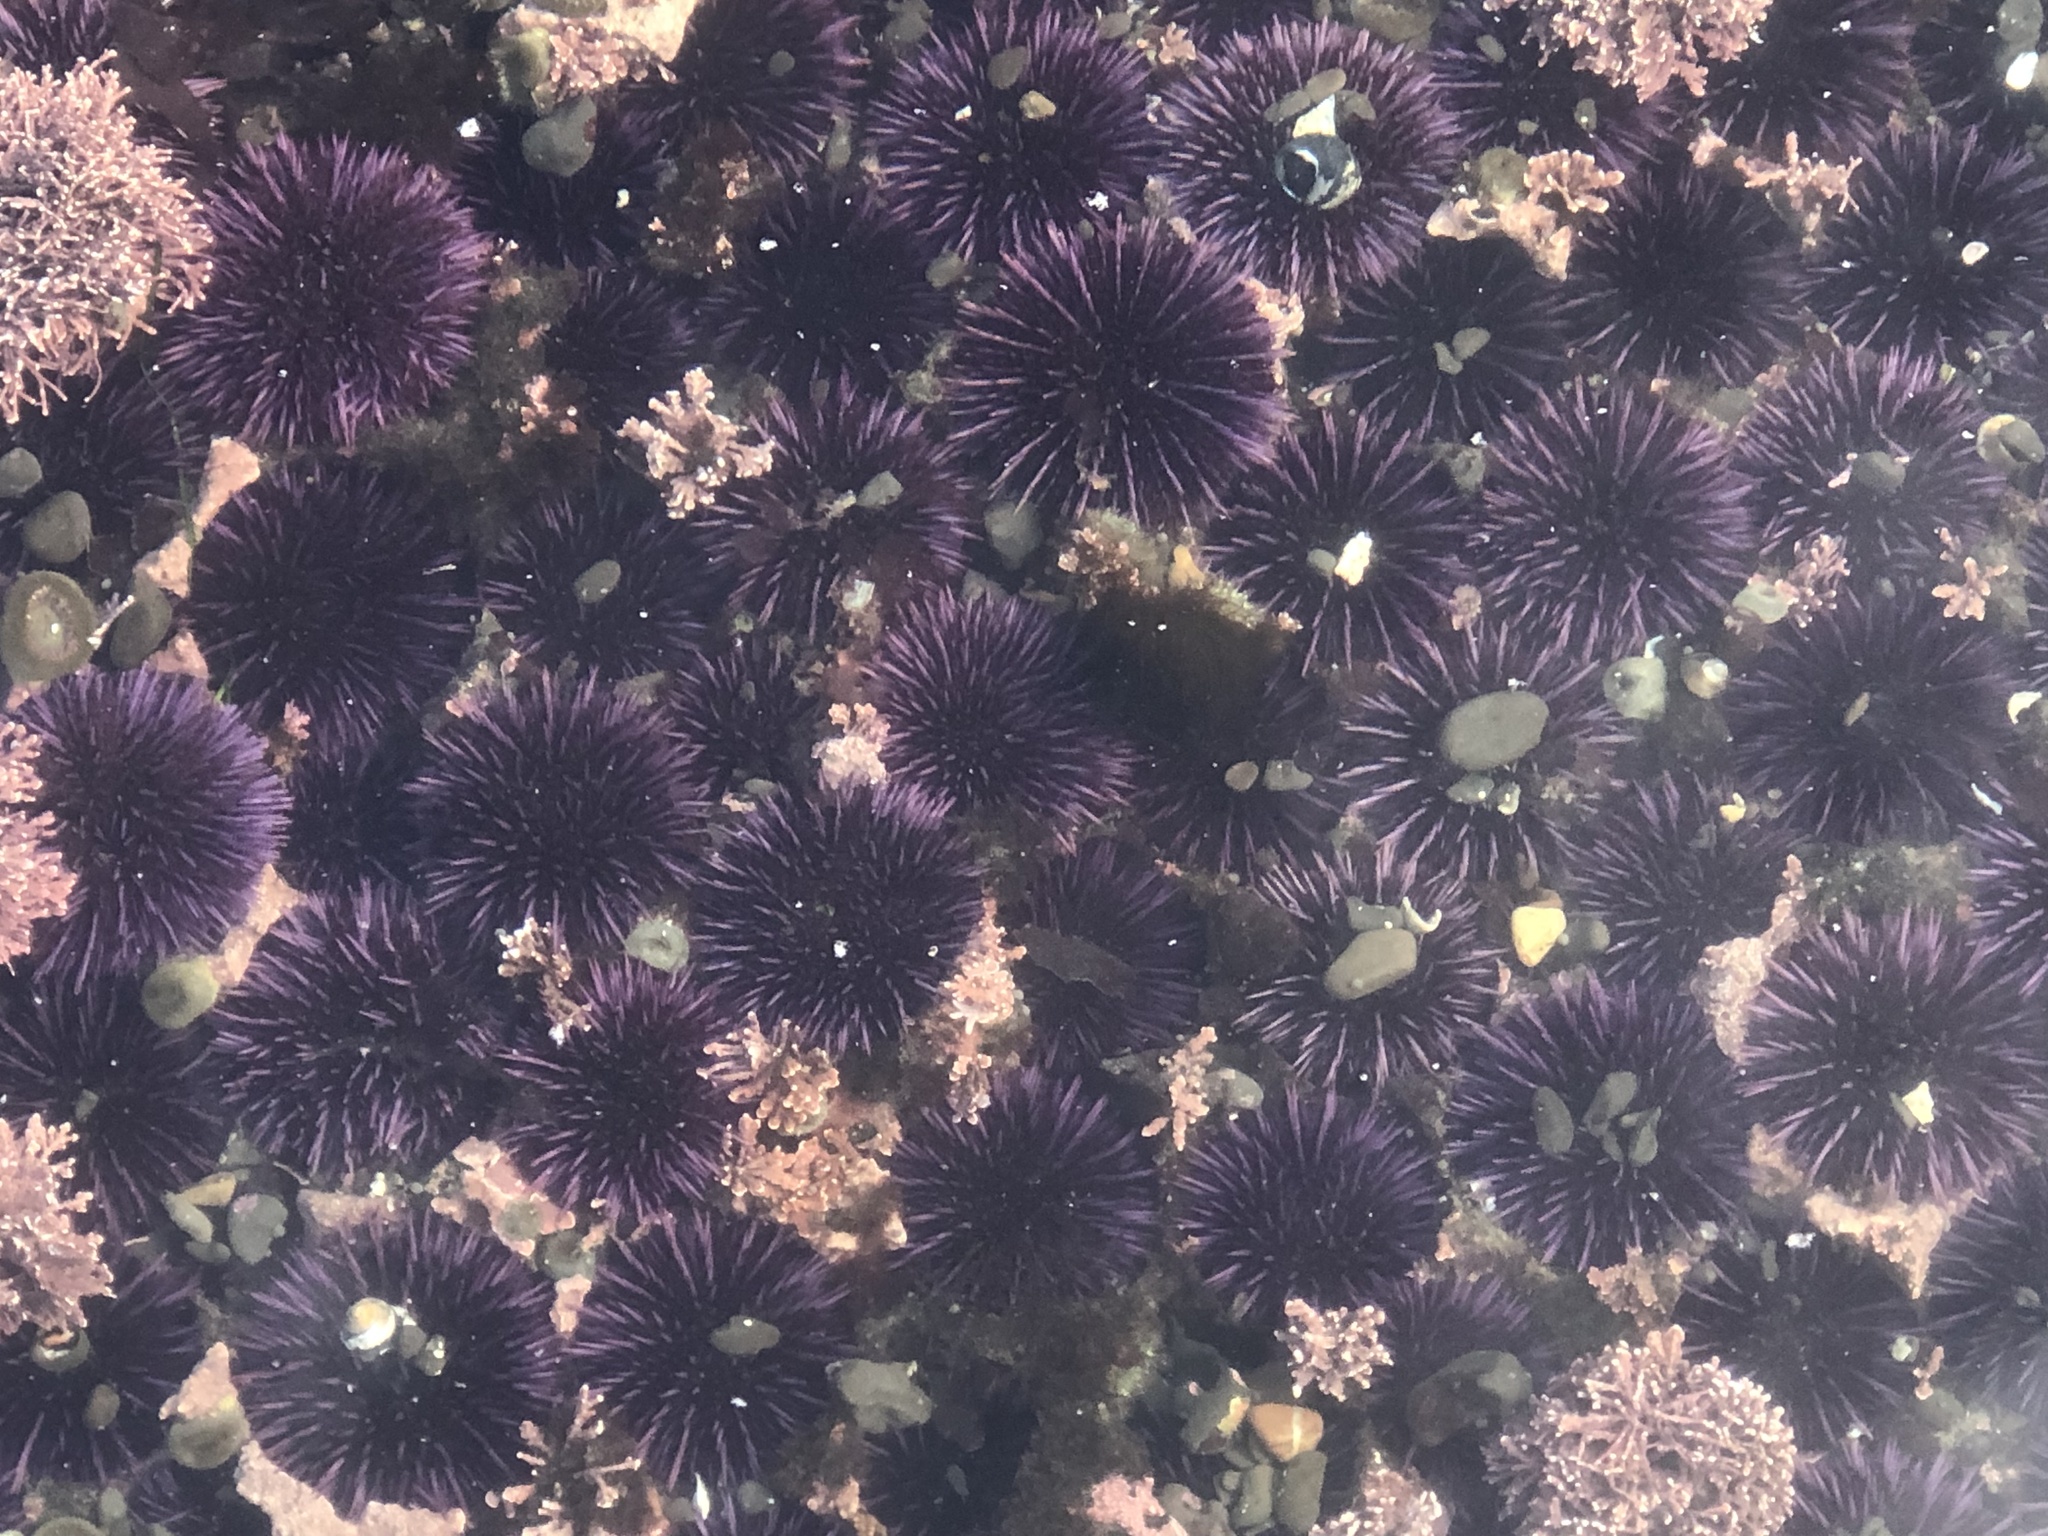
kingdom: Animalia
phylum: Echinodermata
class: Echinoidea
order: Camarodonta
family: Strongylocentrotidae
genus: Strongylocentrotus
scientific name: Strongylocentrotus purpuratus
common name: Purple sea urchin
